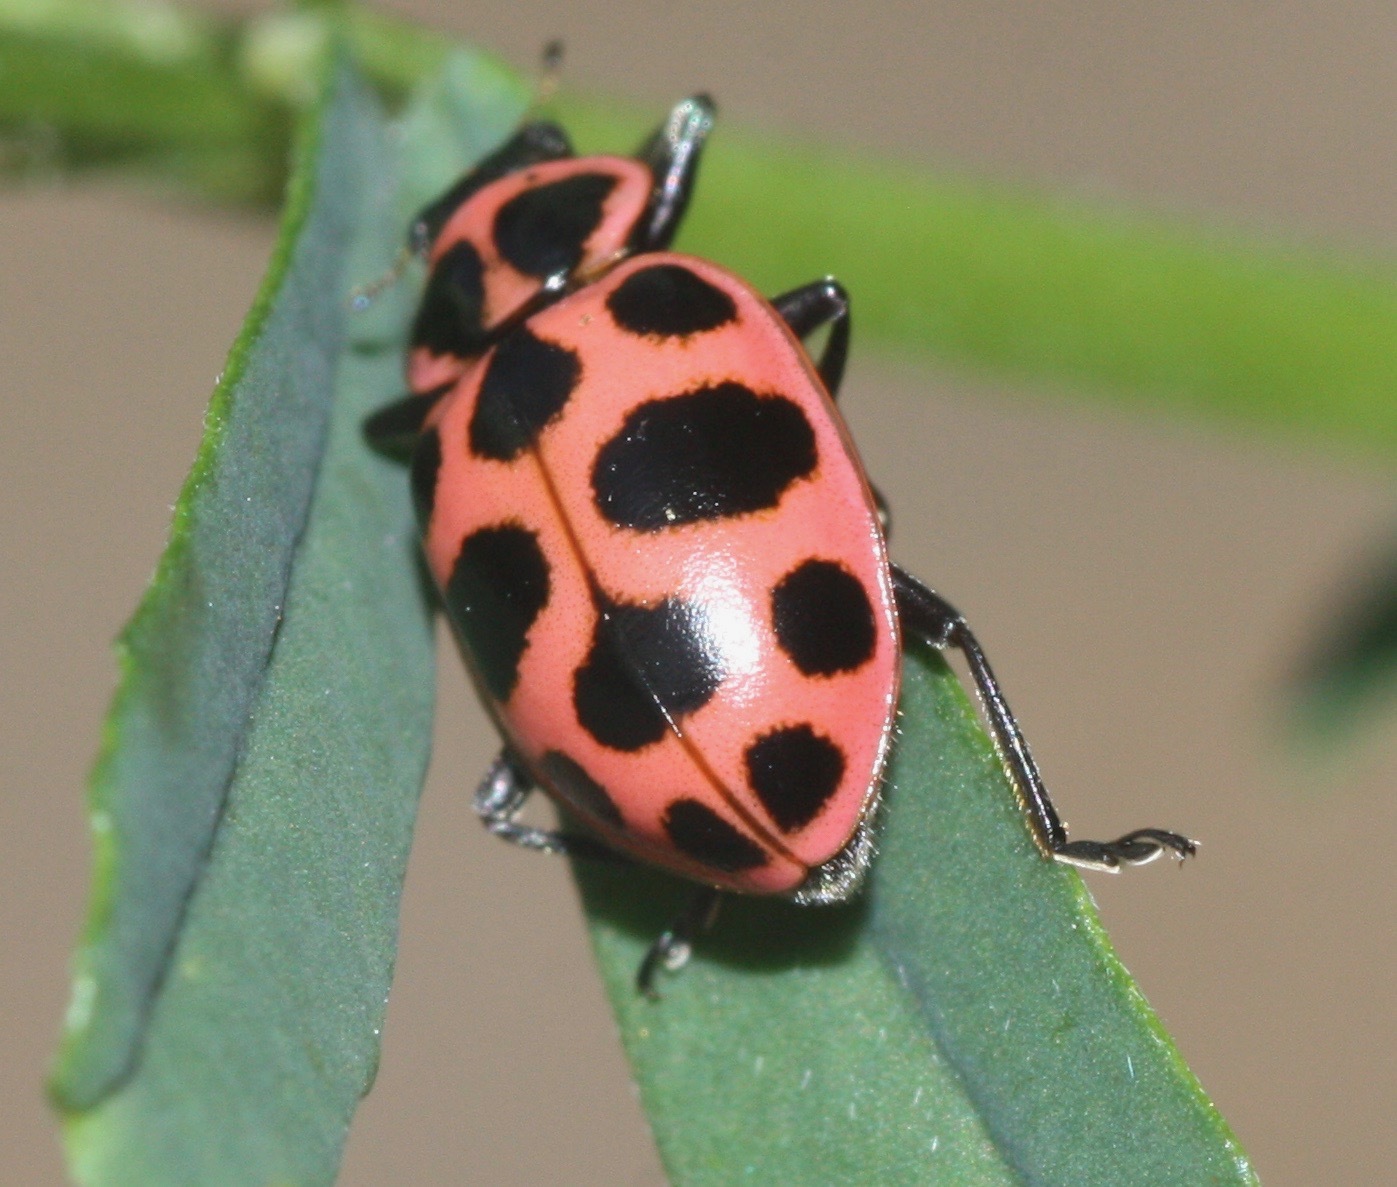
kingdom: Animalia
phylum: Arthropoda
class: Insecta
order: Coleoptera
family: Coccinellidae
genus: Coleomegilla
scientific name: Coleomegilla maculata
